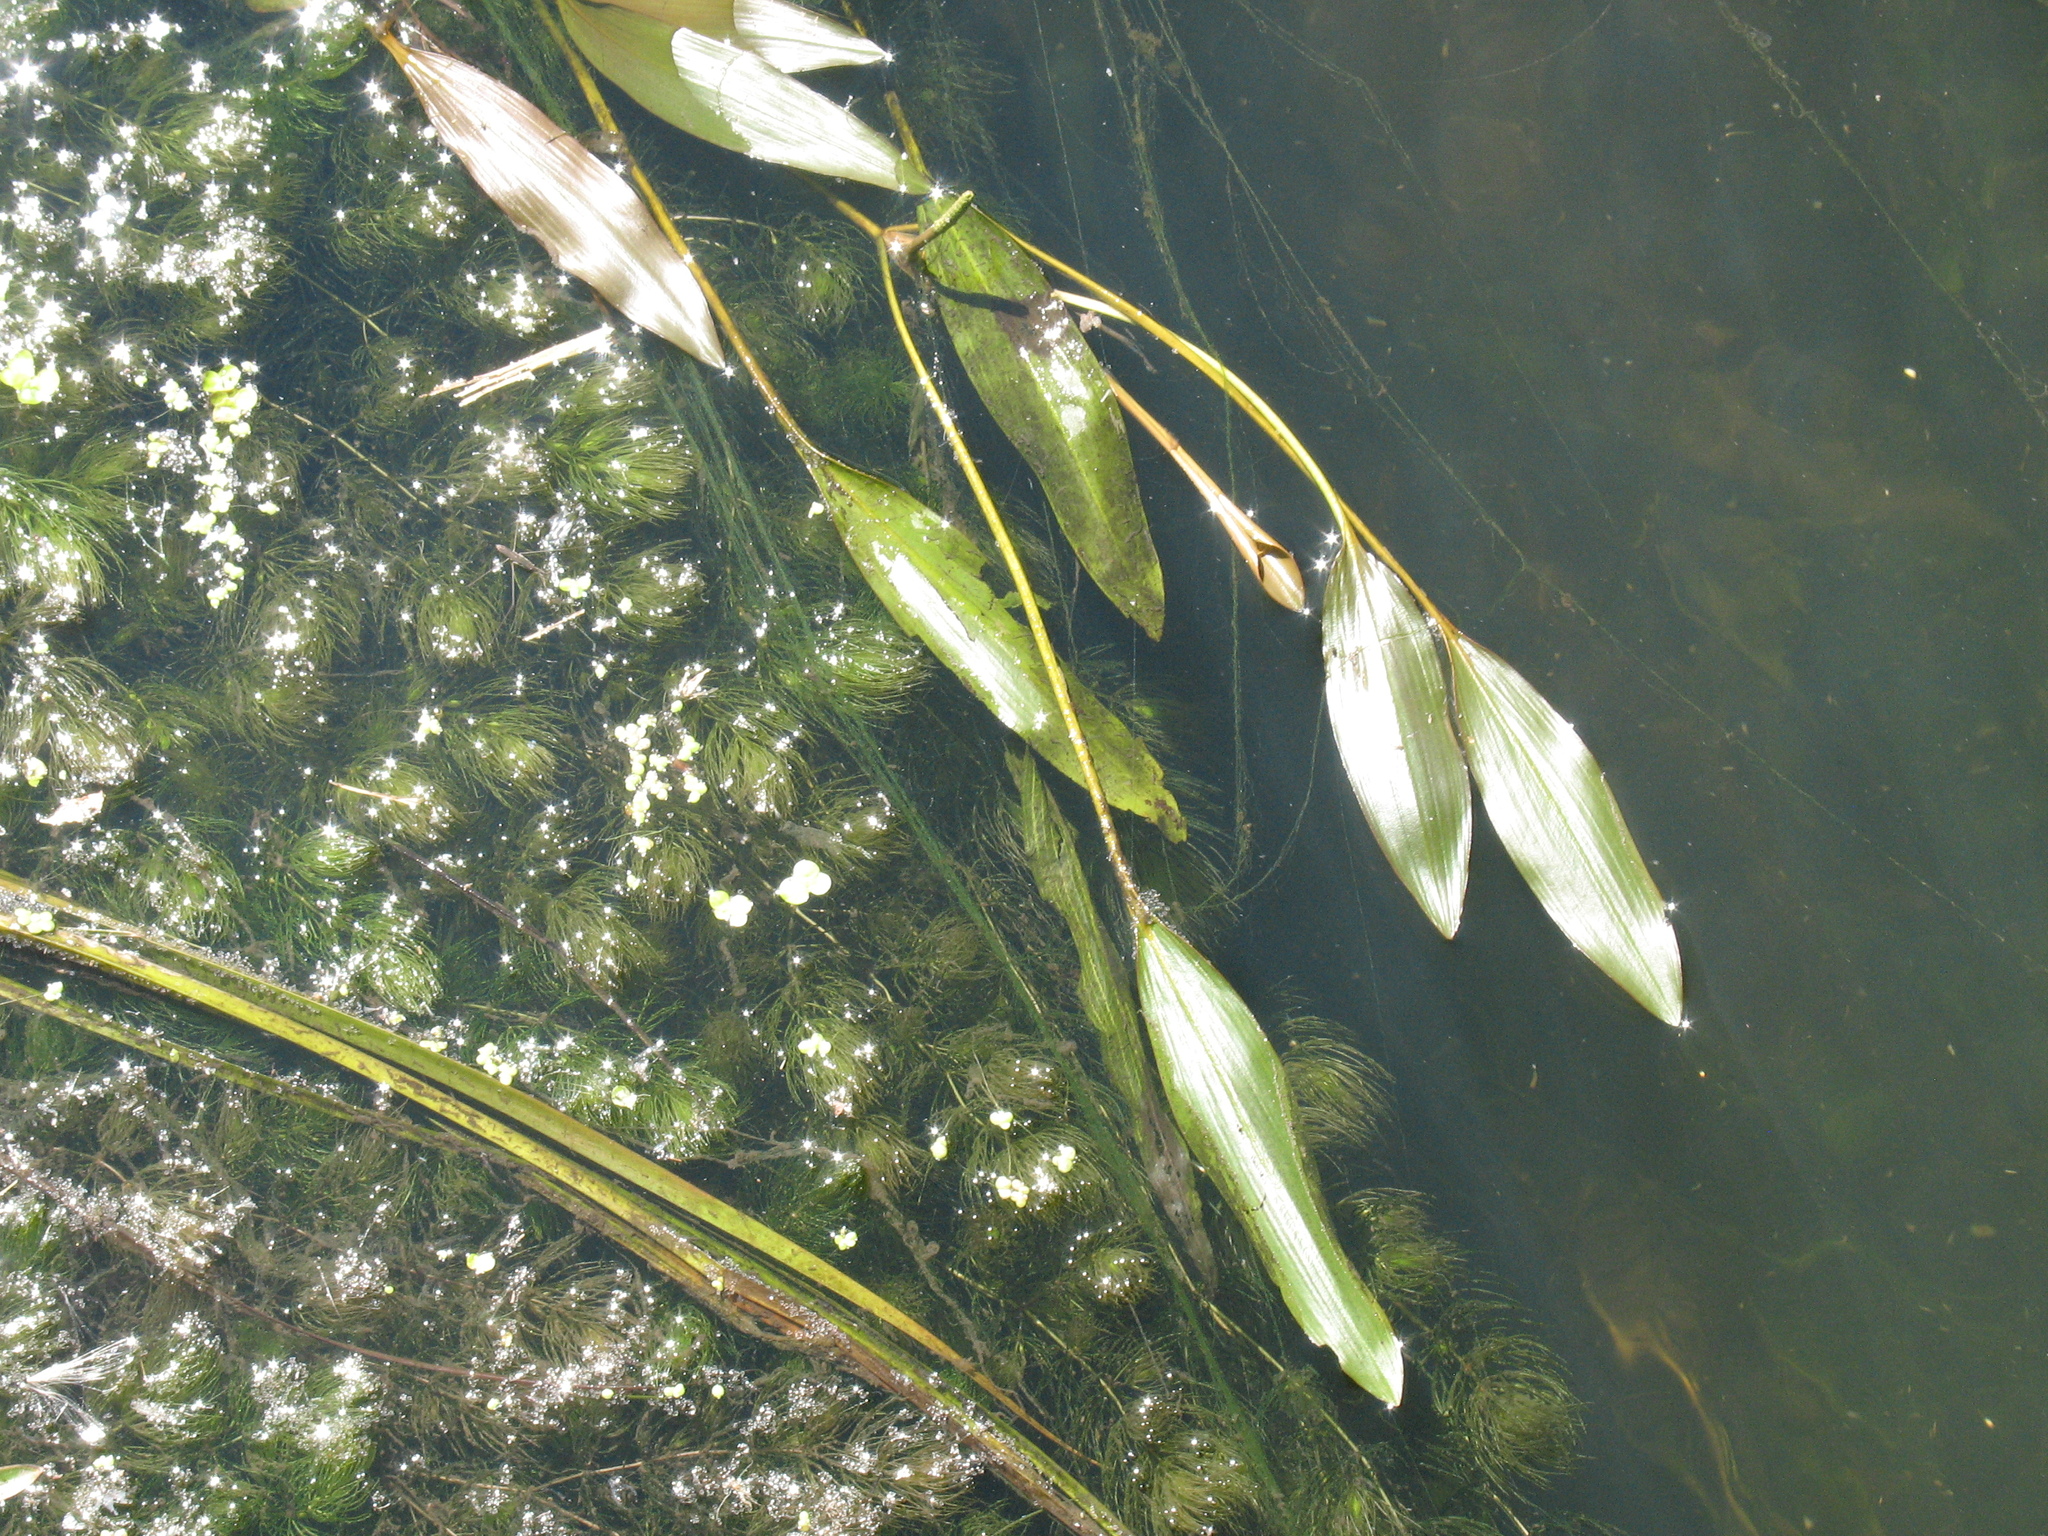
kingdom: Plantae
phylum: Tracheophyta
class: Liliopsida
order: Alismatales
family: Potamogetonaceae
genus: Potamogeton
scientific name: Potamogeton nodosus
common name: Loddon pondweed
